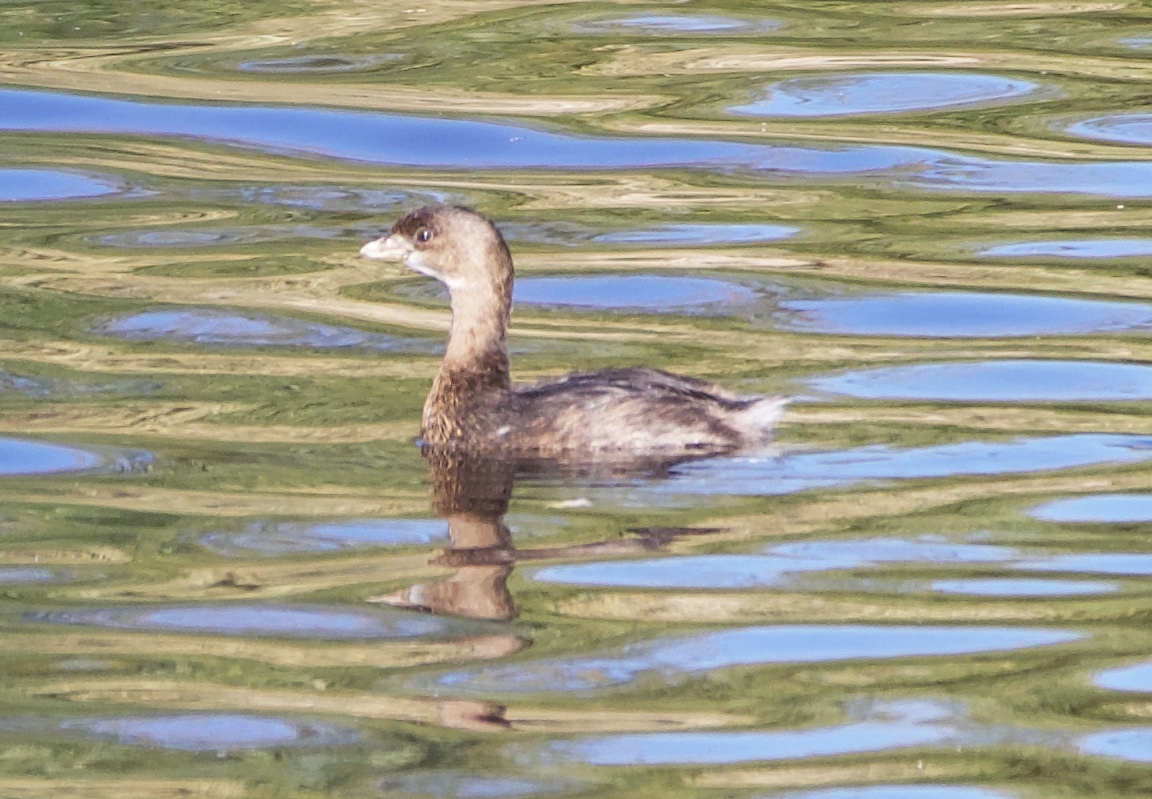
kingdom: Animalia
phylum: Chordata
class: Aves
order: Podicipediformes
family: Podicipedidae
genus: Podilymbus
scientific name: Podilymbus podiceps
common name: Pied-billed grebe
